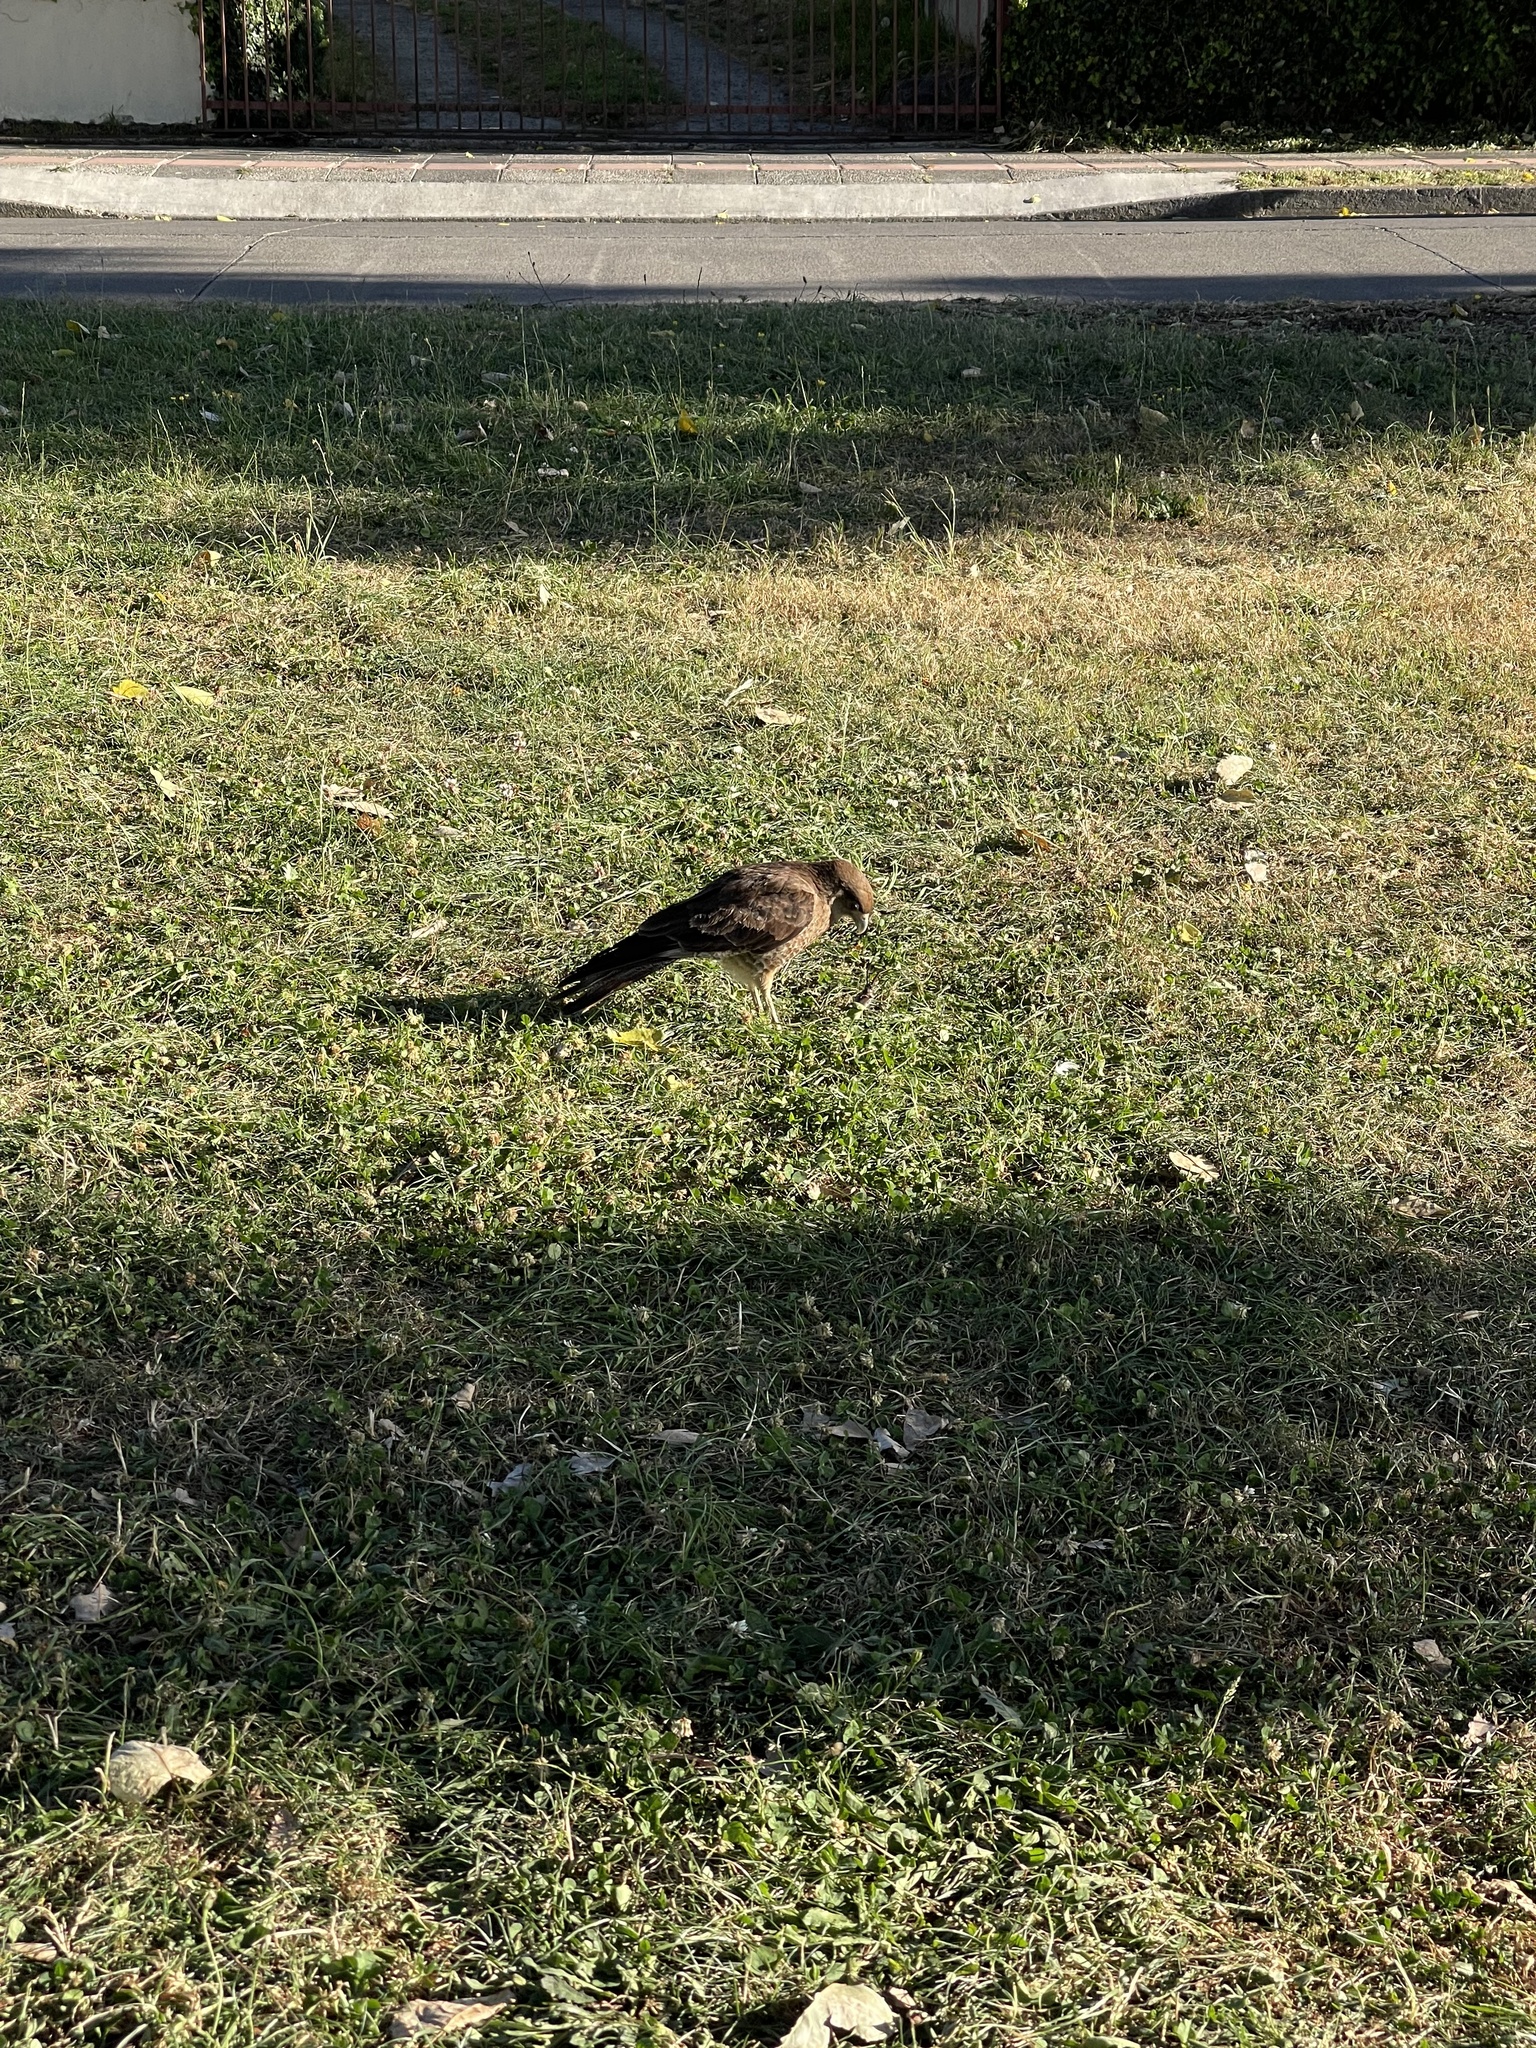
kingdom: Animalia
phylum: Chordata
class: Aves
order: Falconiformes
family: Falconidae
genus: Daptrius
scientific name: Daptrius
